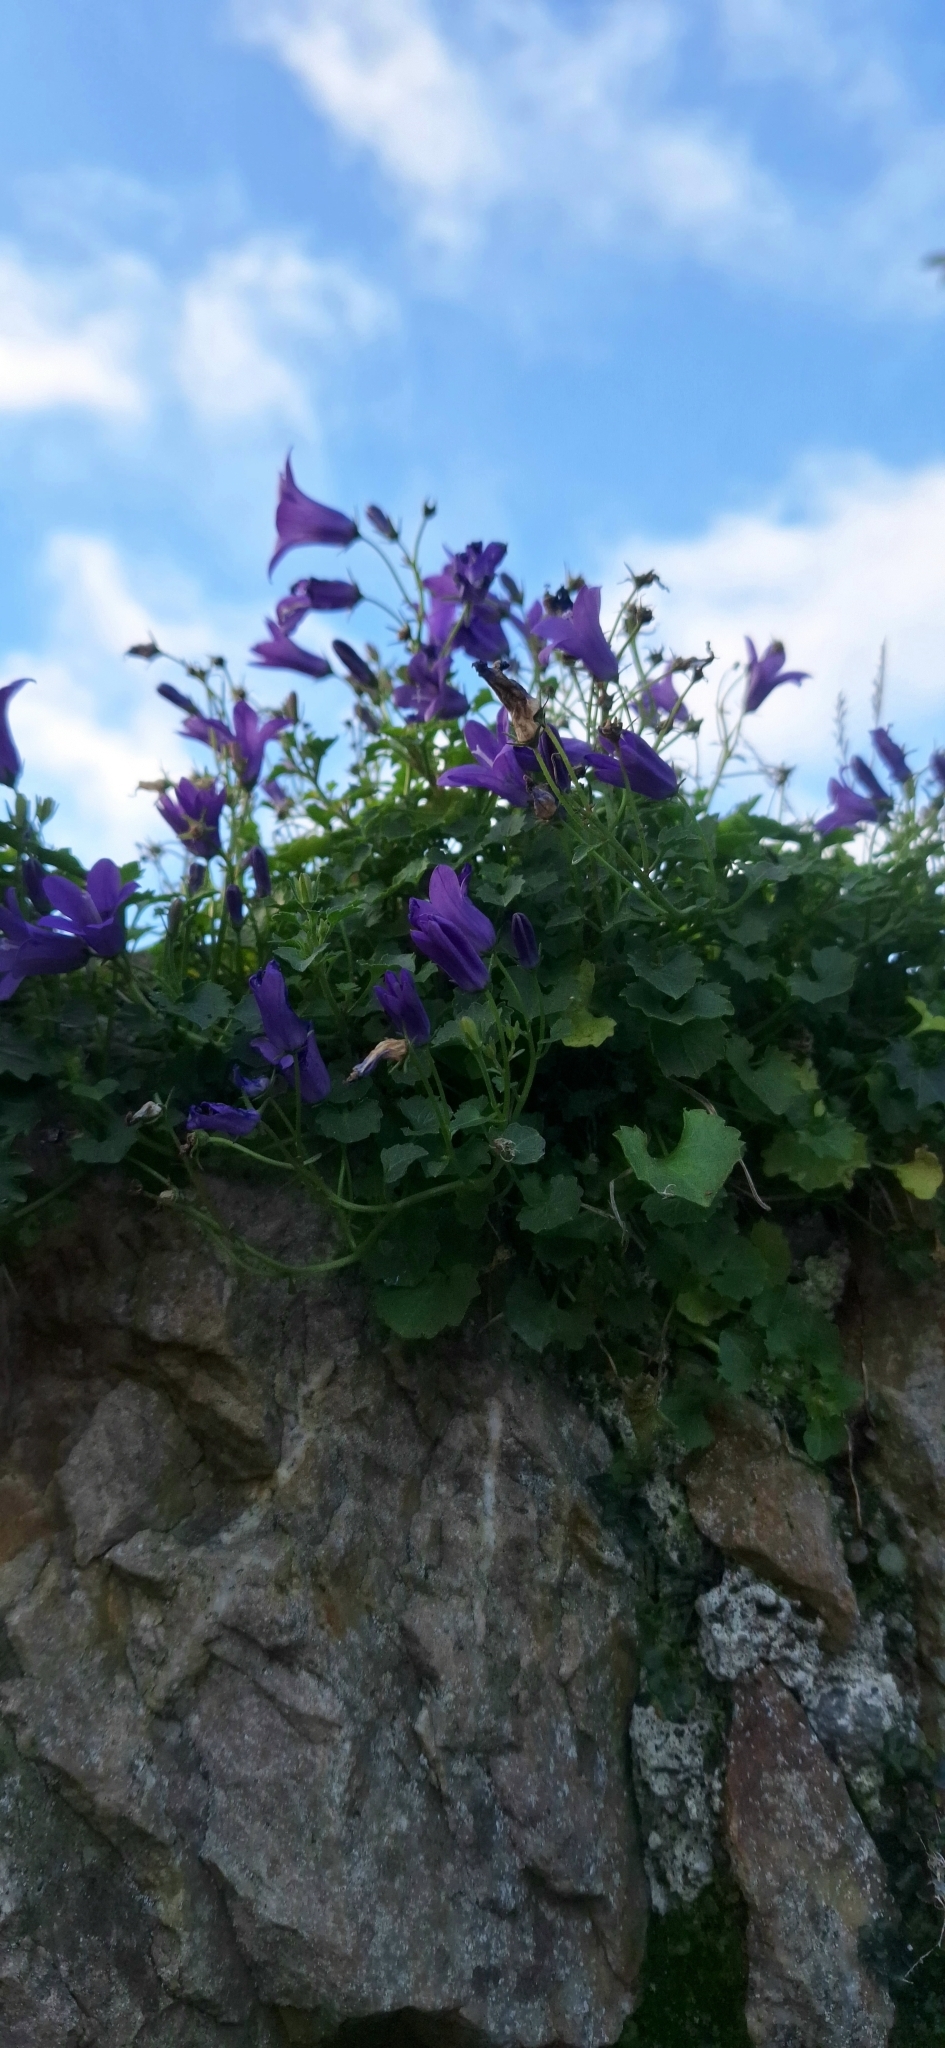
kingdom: Plantae
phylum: Tracheophyta
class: Magnoliopsida
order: Asterales
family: Campanulaceae
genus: Campanula
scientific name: Campanula portenschlagiana
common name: Adria bellflower
